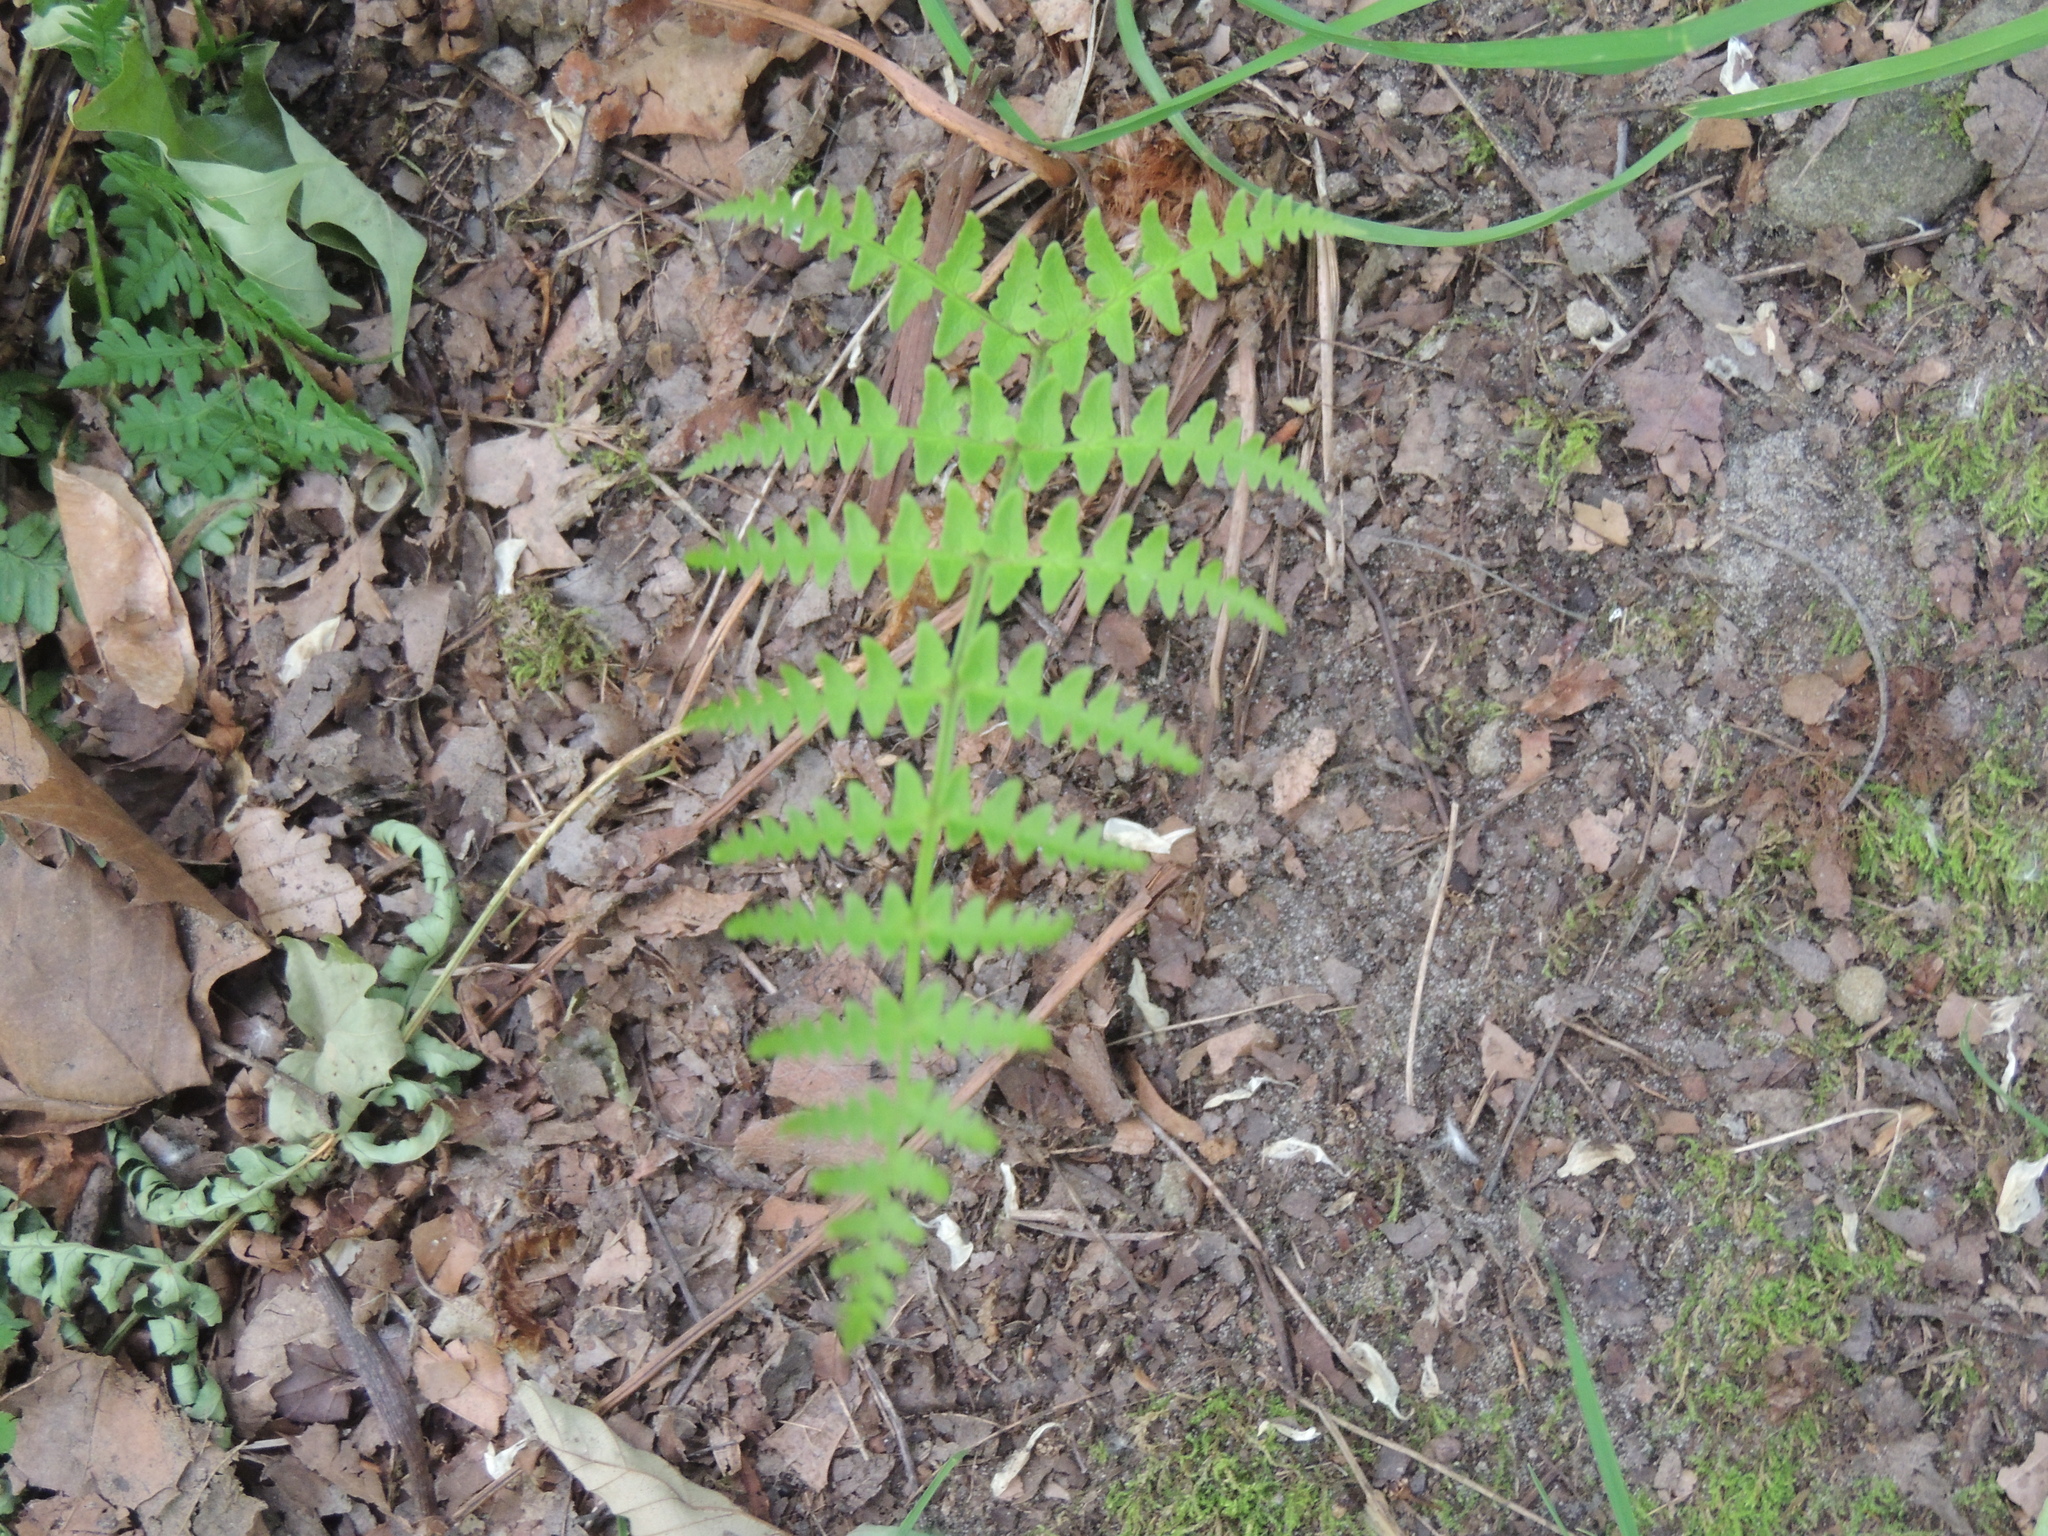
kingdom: Plantae
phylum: Tracheophyta
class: Polypodiopsida
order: Polypodiales
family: Dryopteridaceae
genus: Dryopteris
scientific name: Dryopteris marginalis
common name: Marginal wood fern
